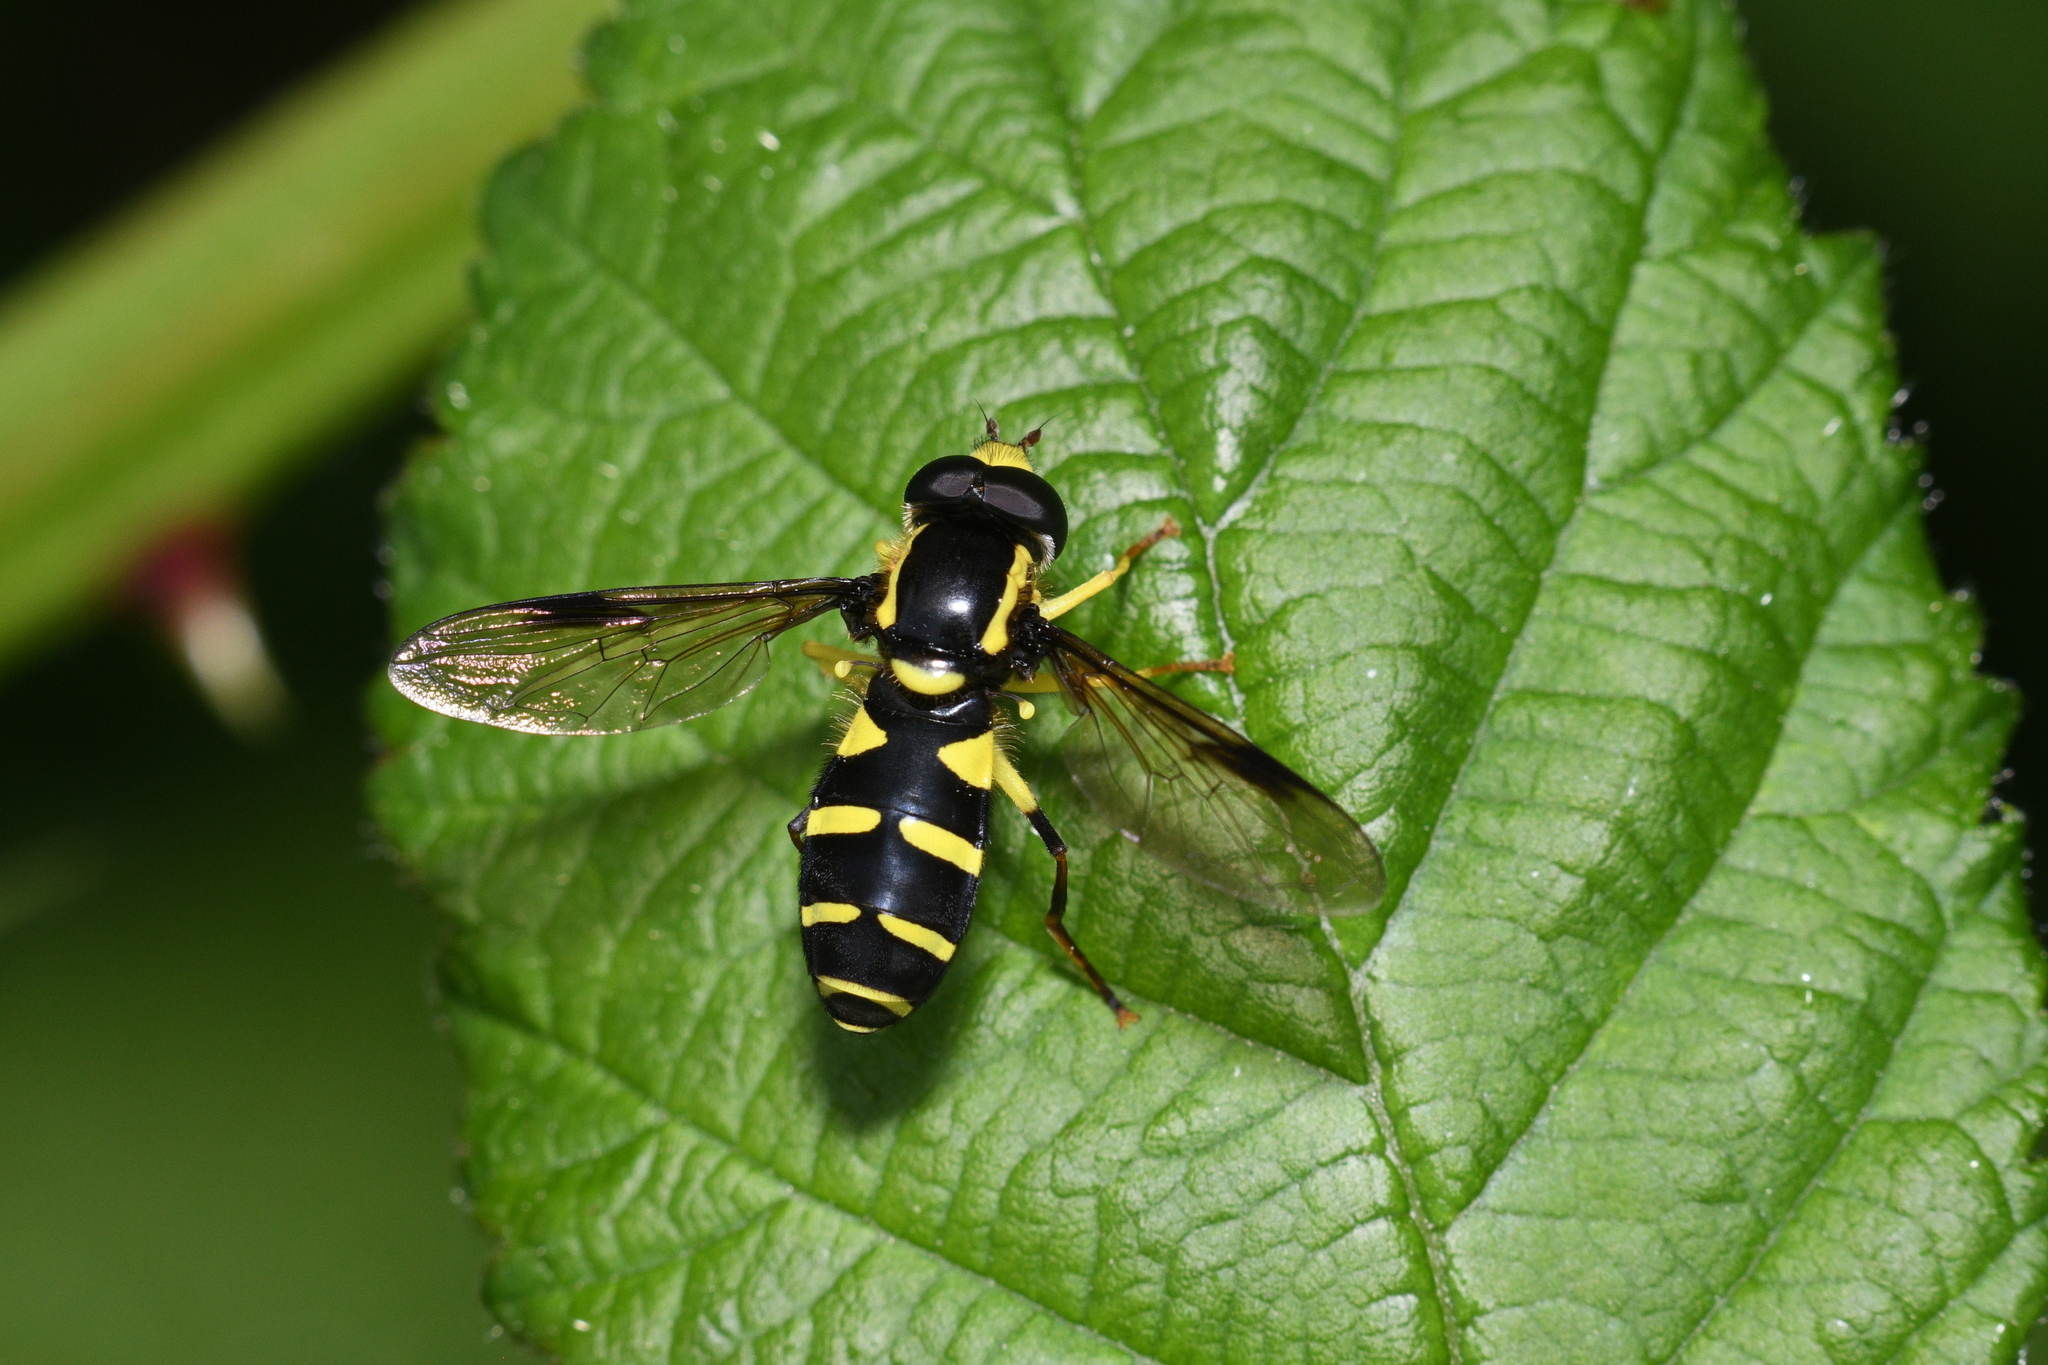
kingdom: Animalia
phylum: Arthropoda
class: Insecta
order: Diptera
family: Syrphidae
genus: Philhelius
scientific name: Philhelius pedissequum
